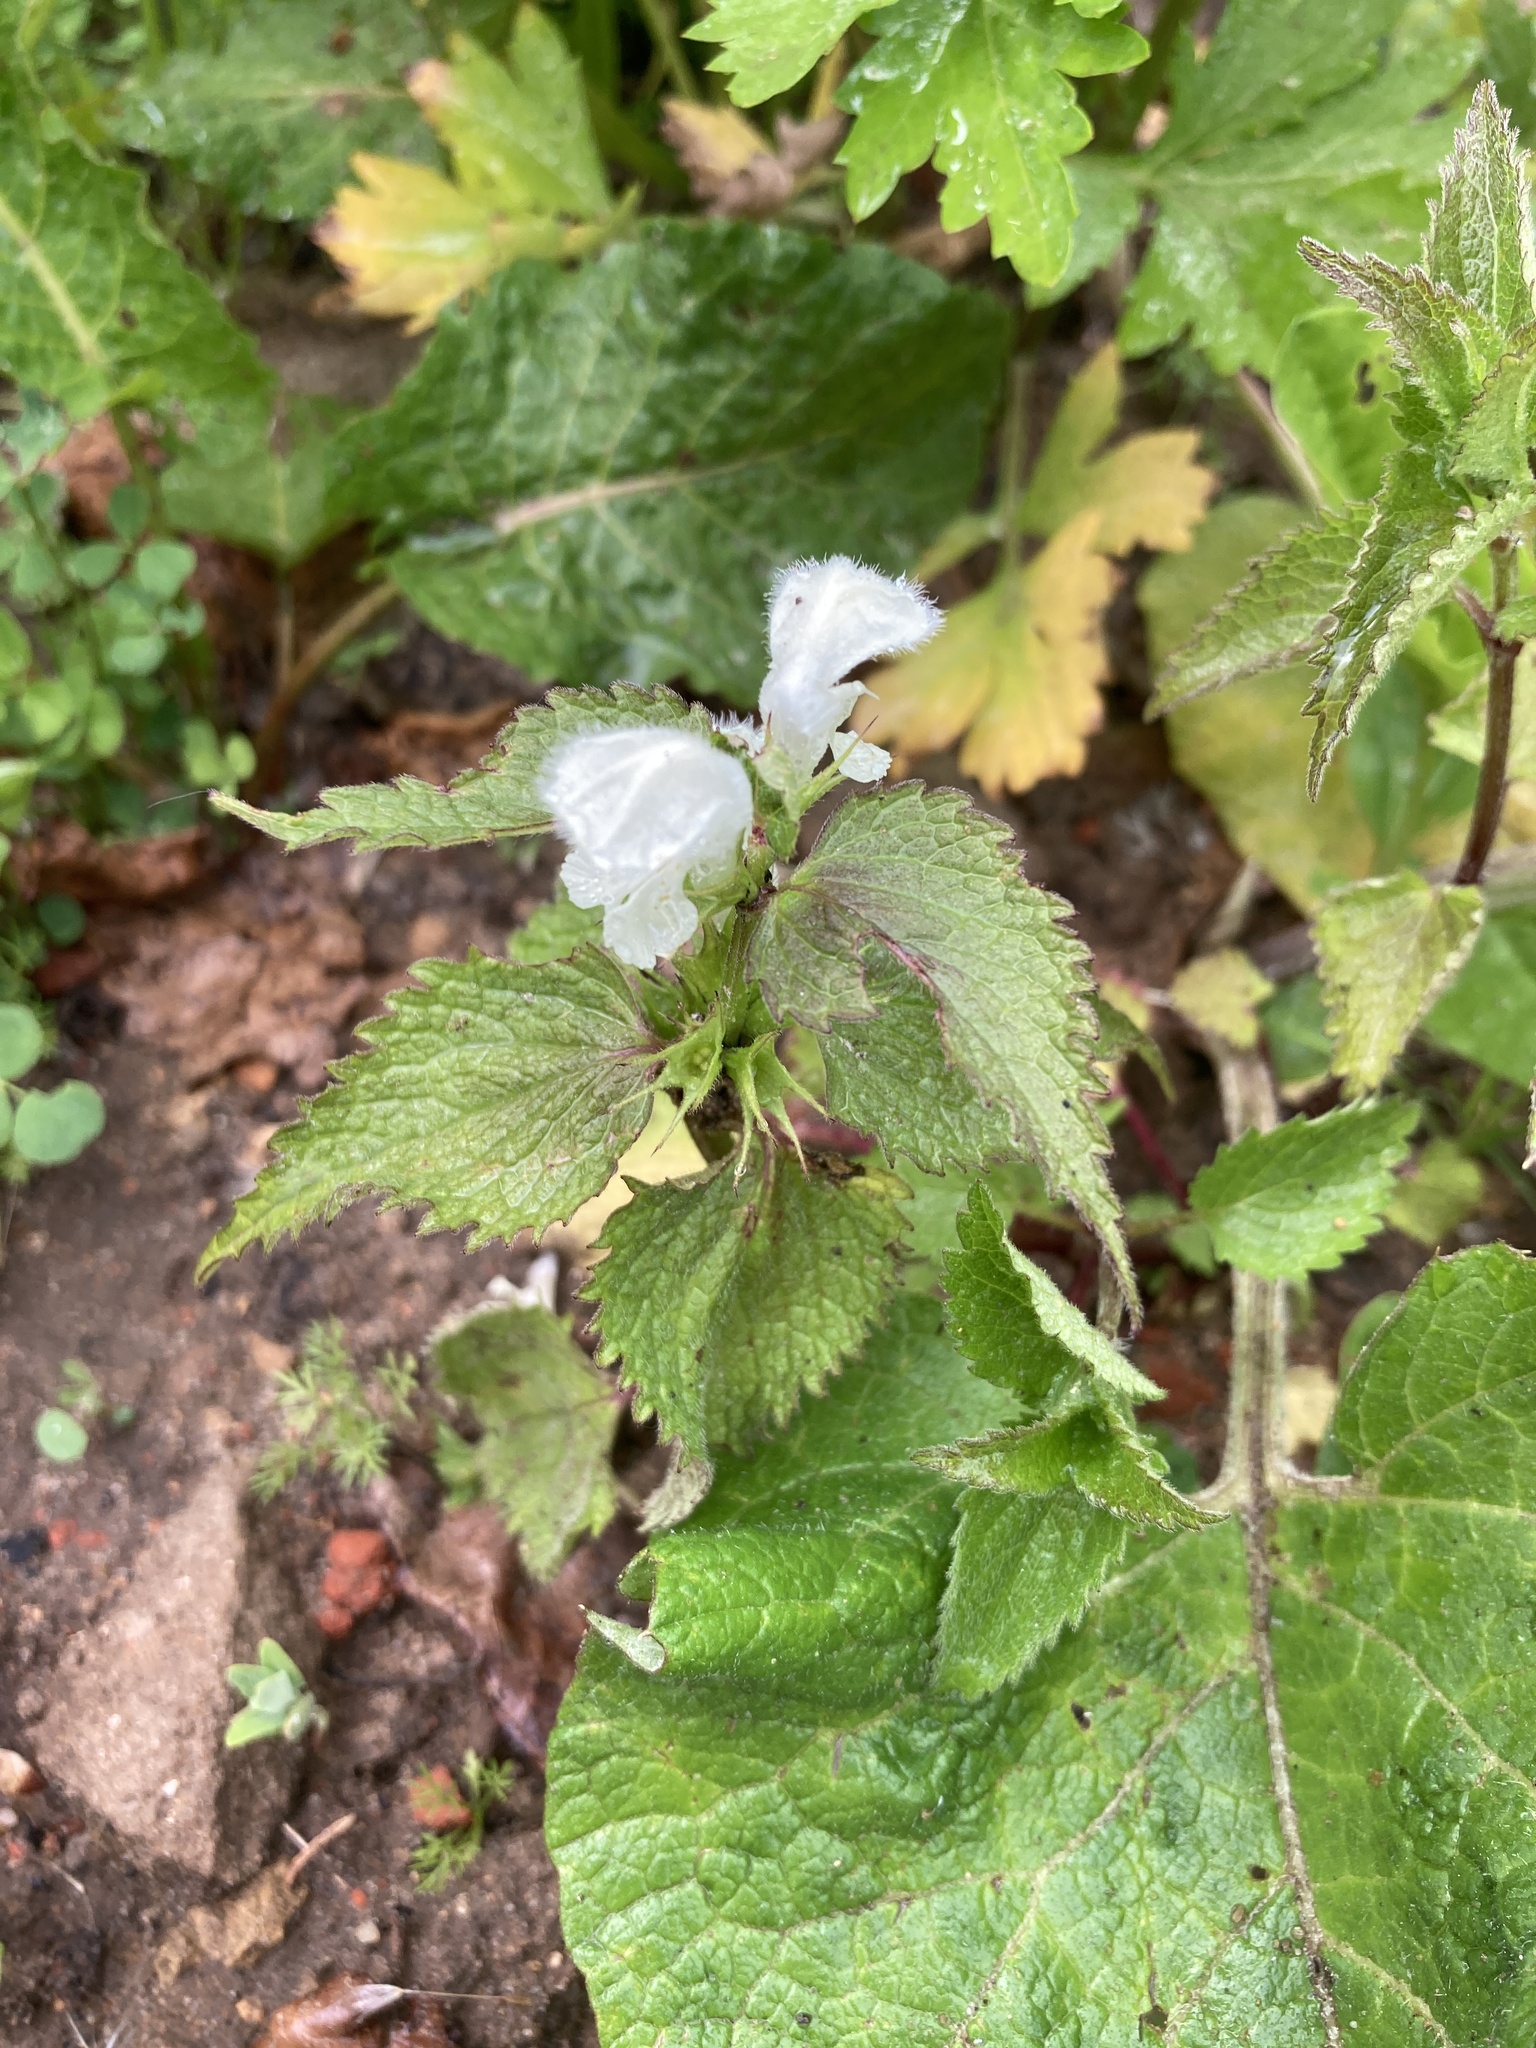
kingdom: Plantae
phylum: Tracheophyta
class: Magnoliopsida
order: Lamiales
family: Lamiaceae
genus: Lamium
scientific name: Lamium album
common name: White dead-nettle
